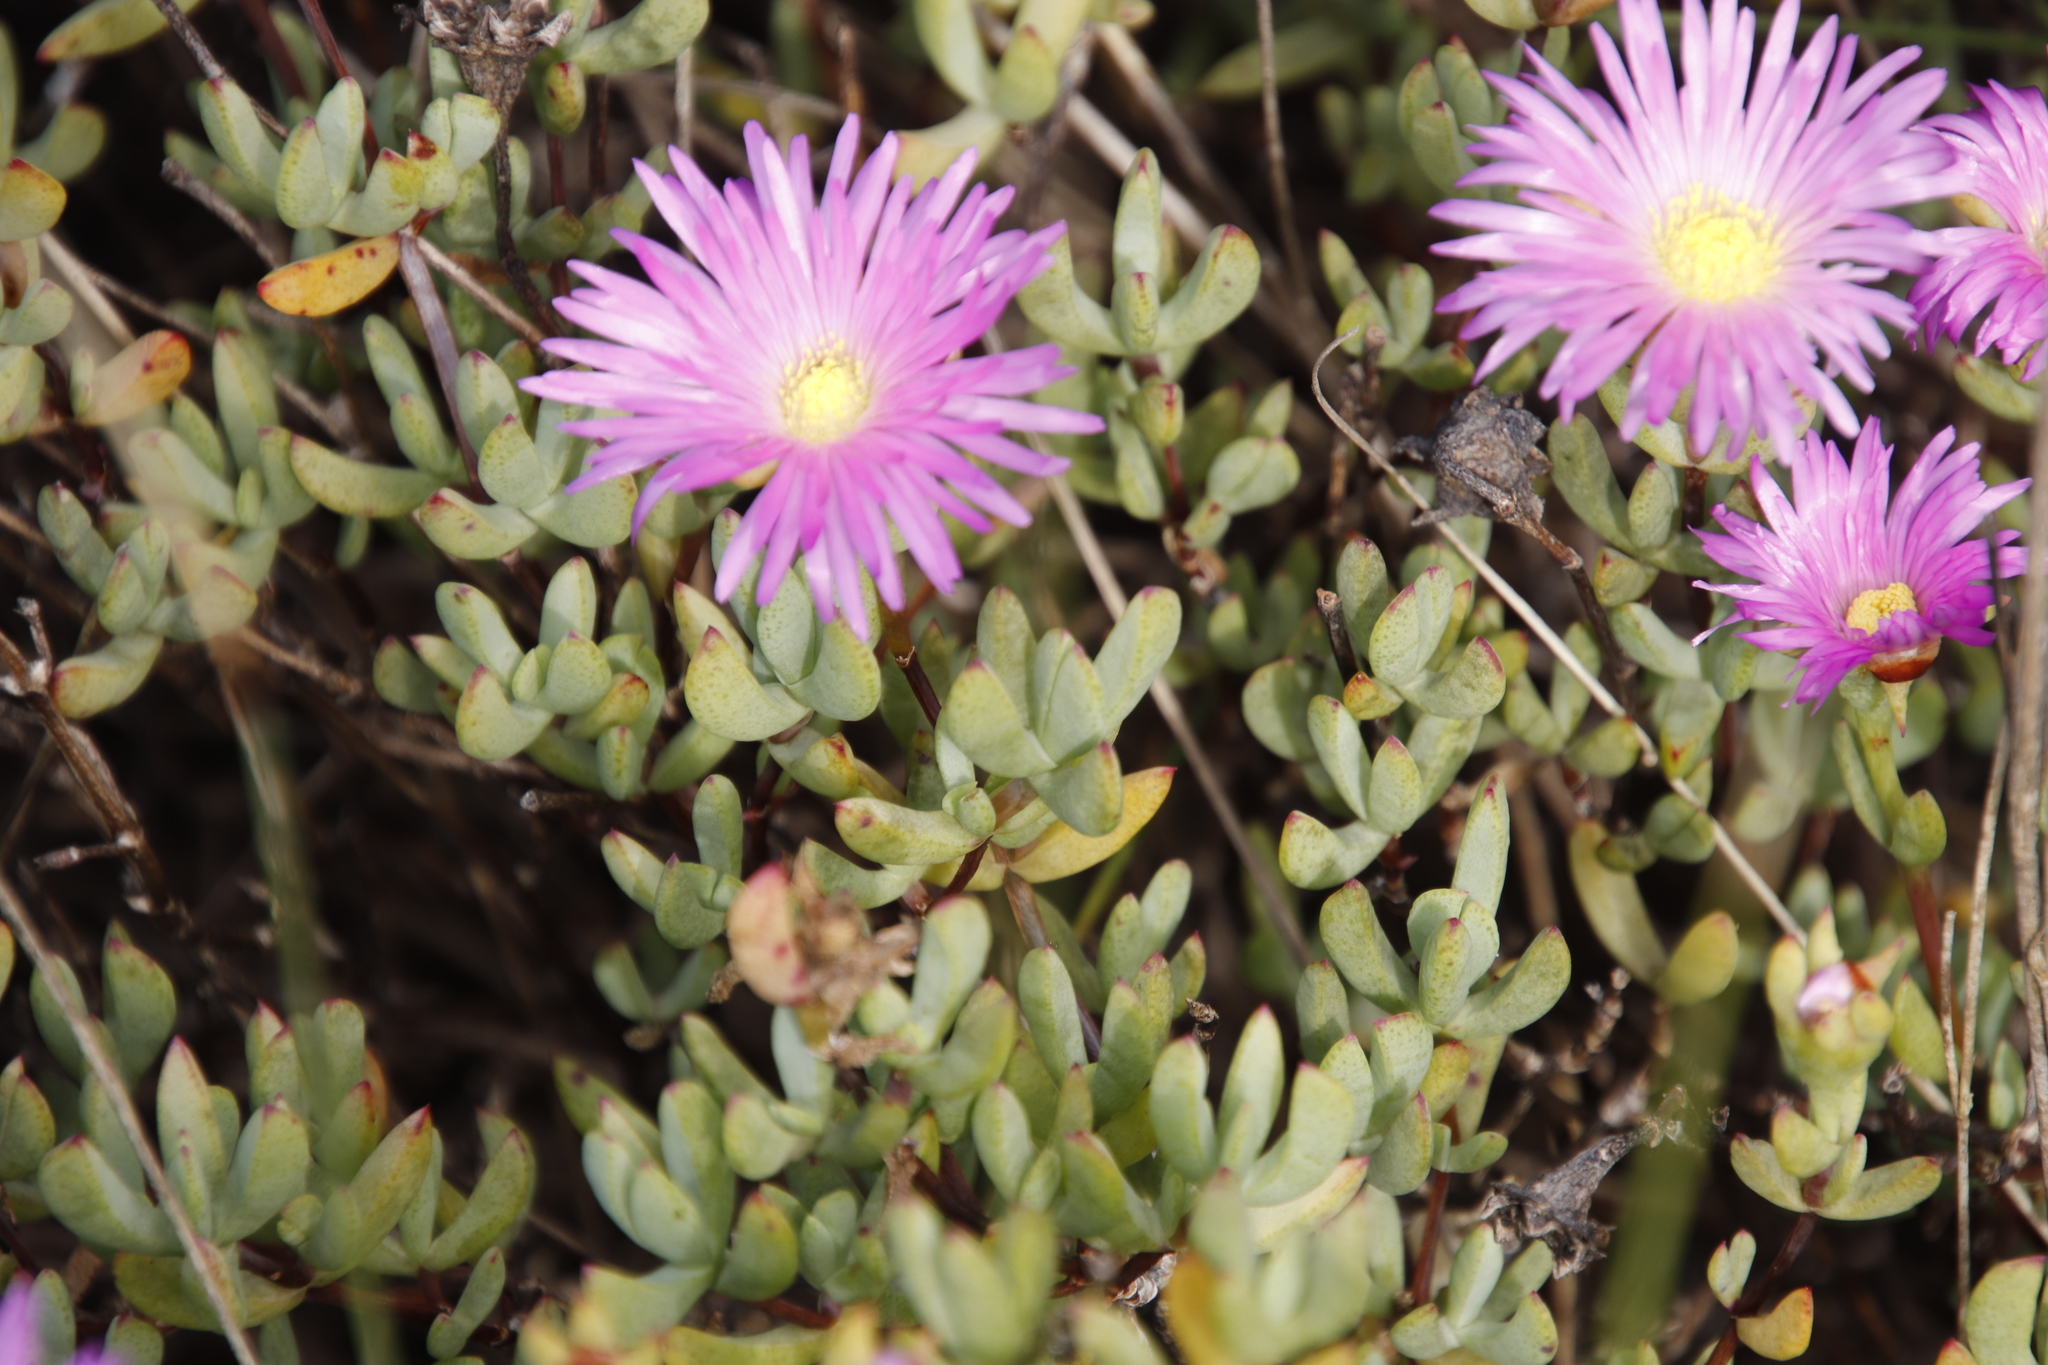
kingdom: Plantae
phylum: Tracheophyta
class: Magnoliopsida
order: Caryophyllales
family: Aizoaceae
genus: Oscularia
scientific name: Oscularia falciformis
